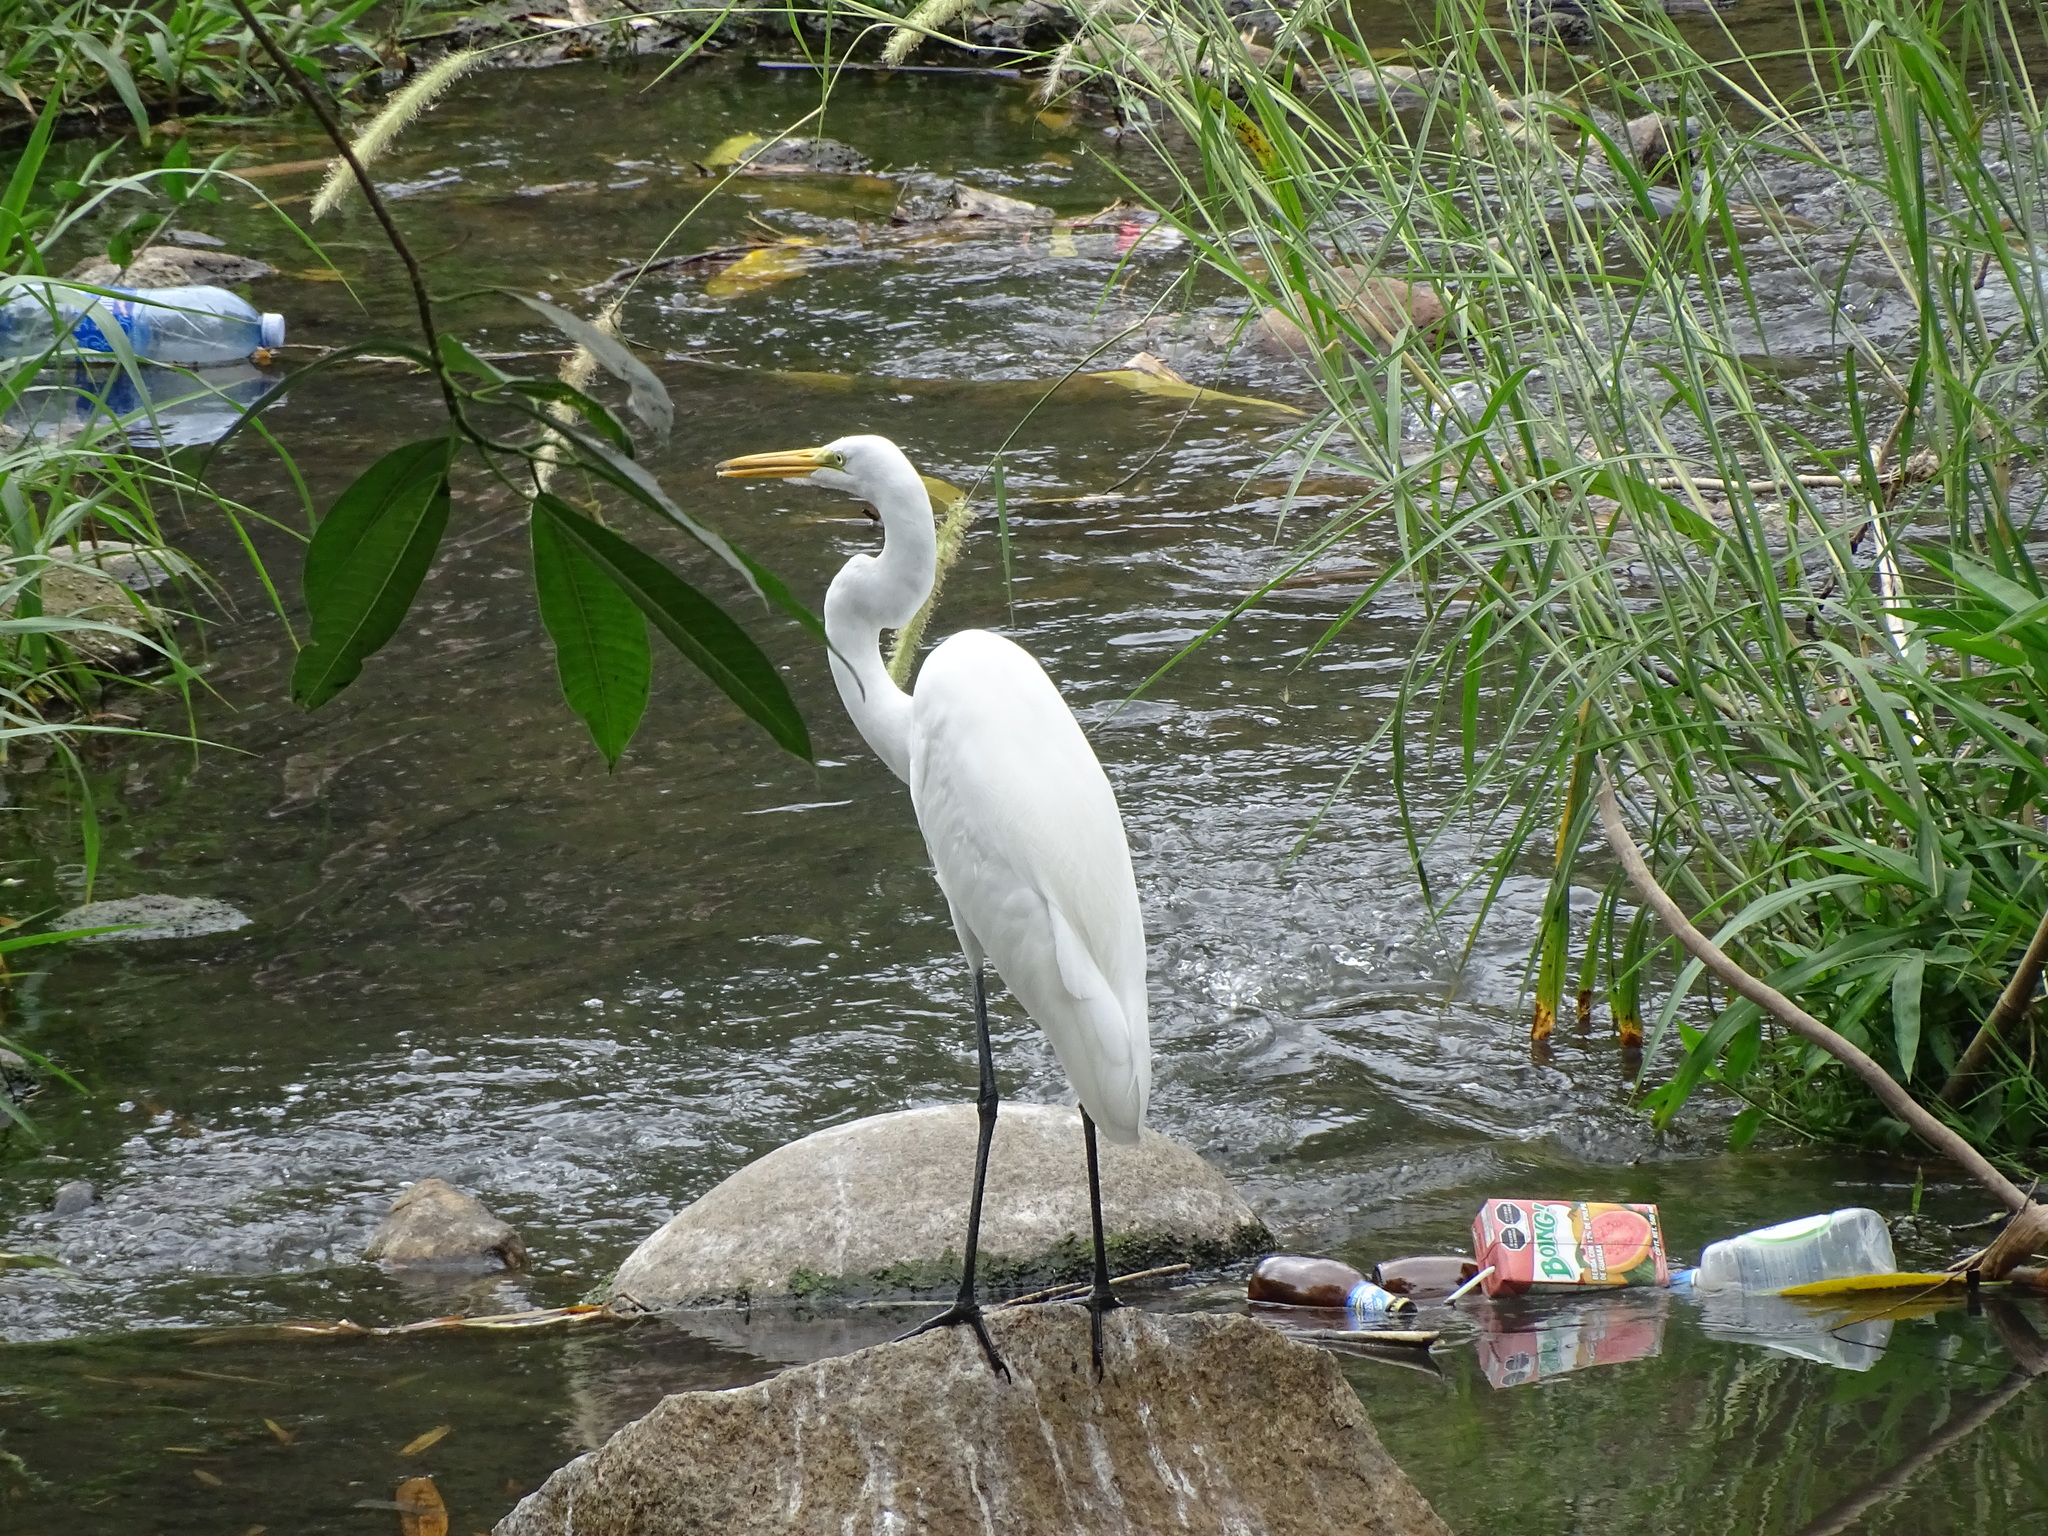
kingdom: Animalia
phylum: Chordata
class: Aves
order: Pelecaniformes
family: Ardeidae
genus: Ardea
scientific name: Ardea alba
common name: Great egret
